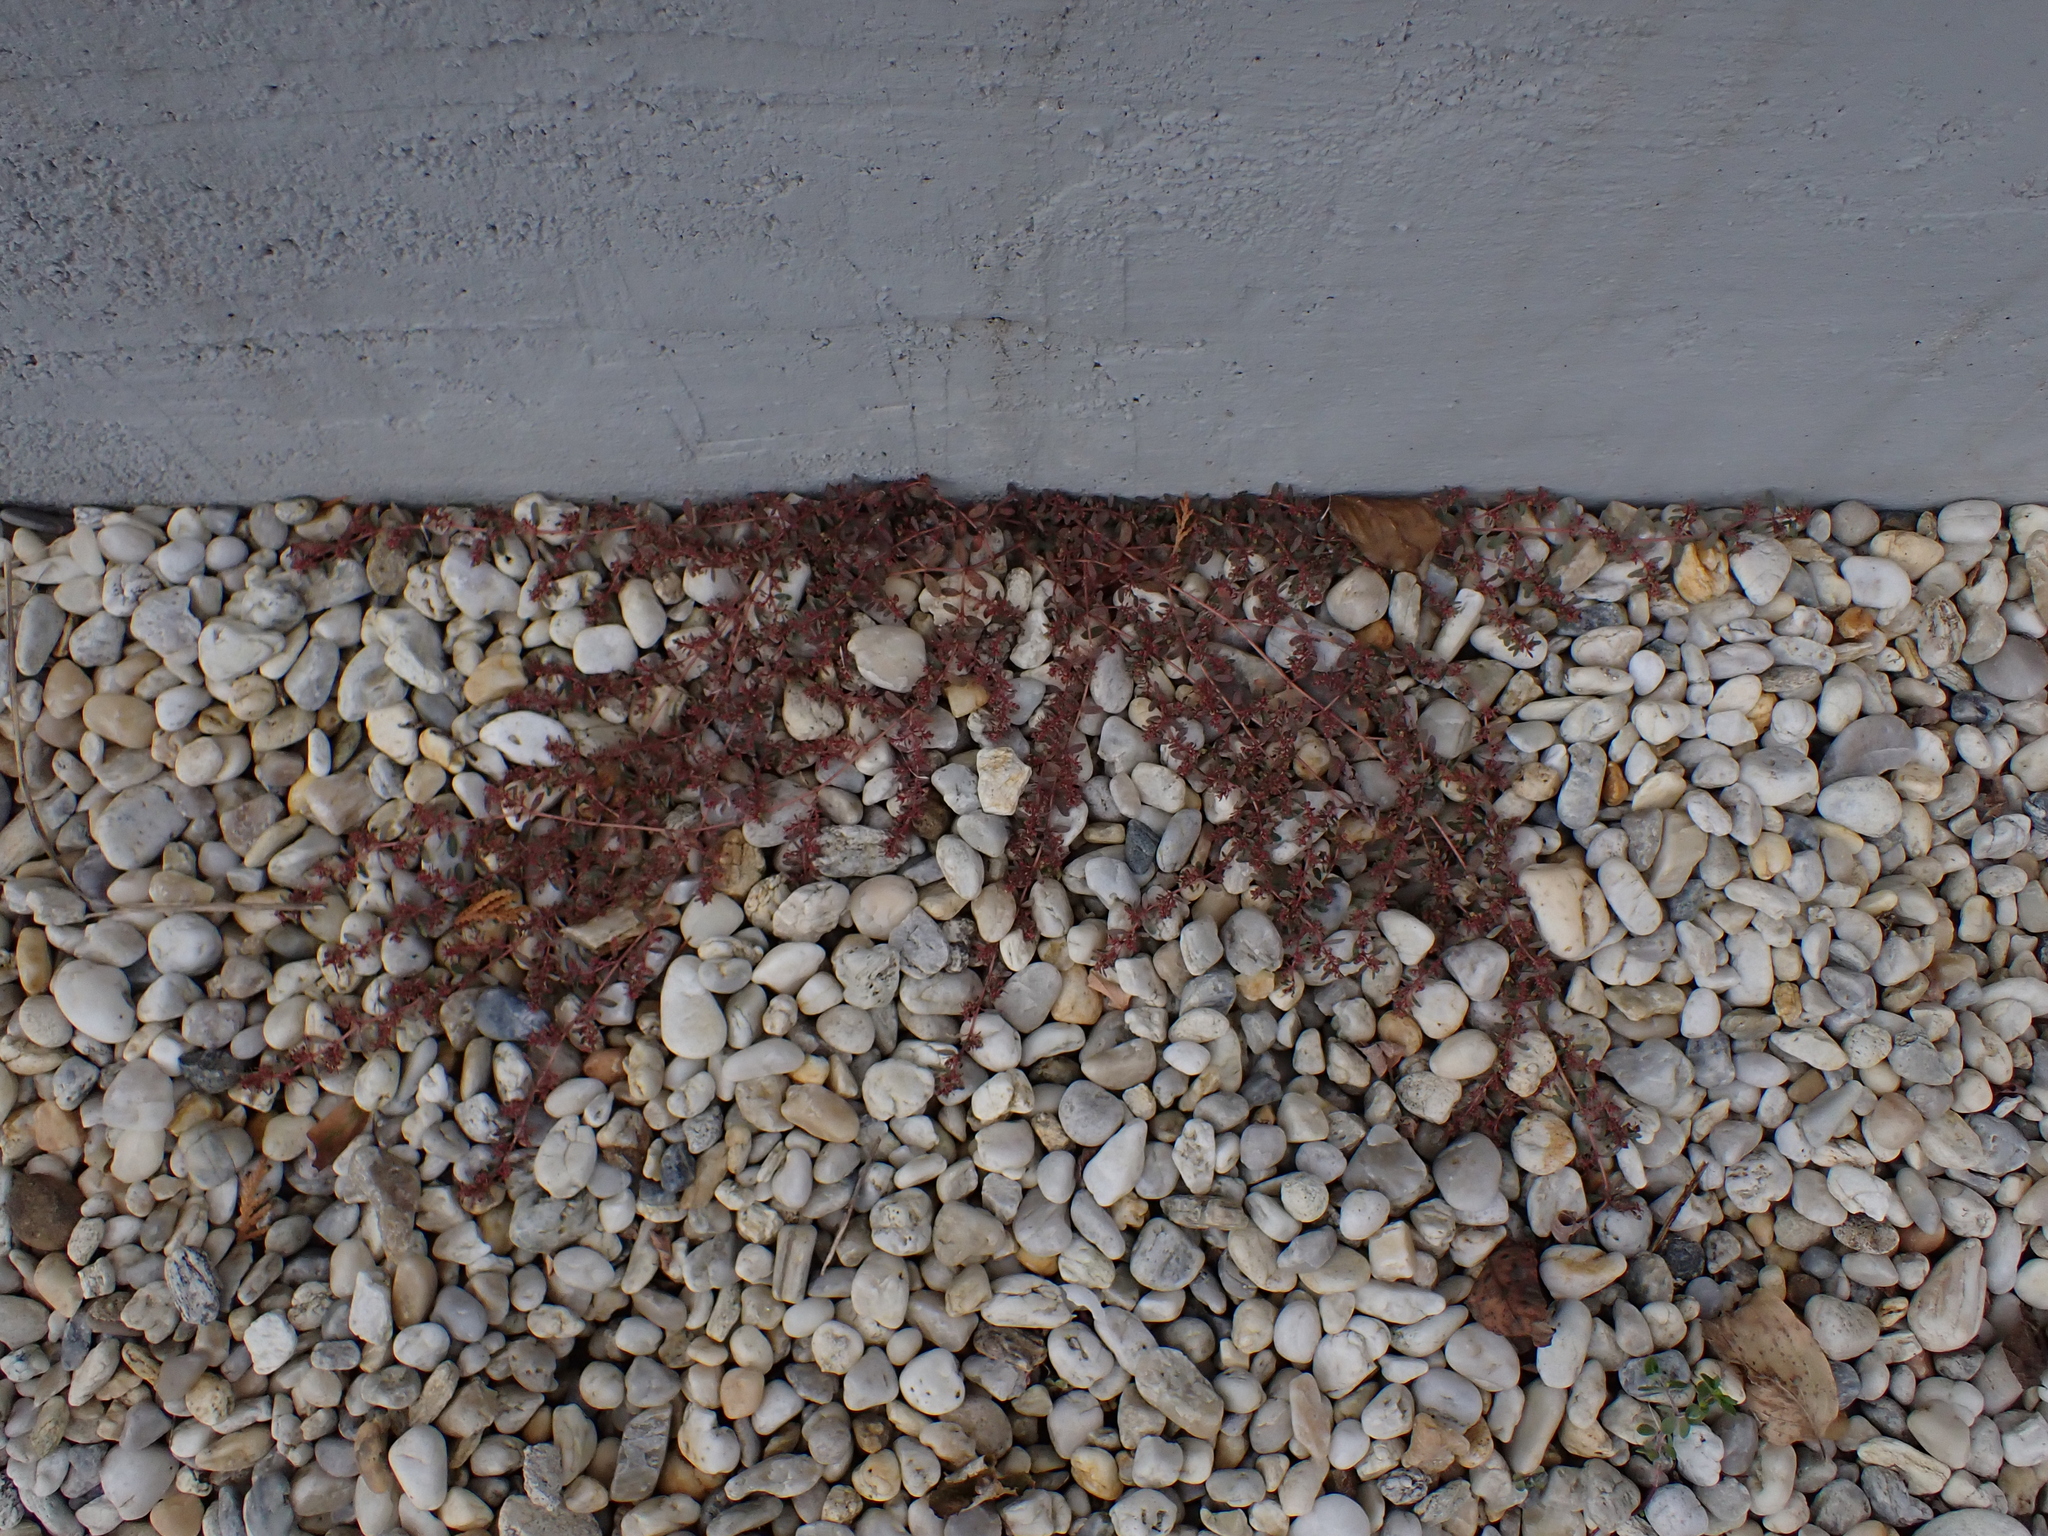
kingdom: Plantae
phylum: Tracheophyta
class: Magnoliopsida
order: Malpighiales
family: Euphorbiaceae
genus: Euphorbia
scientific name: Euphorbia maculata
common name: Spotted spurge
